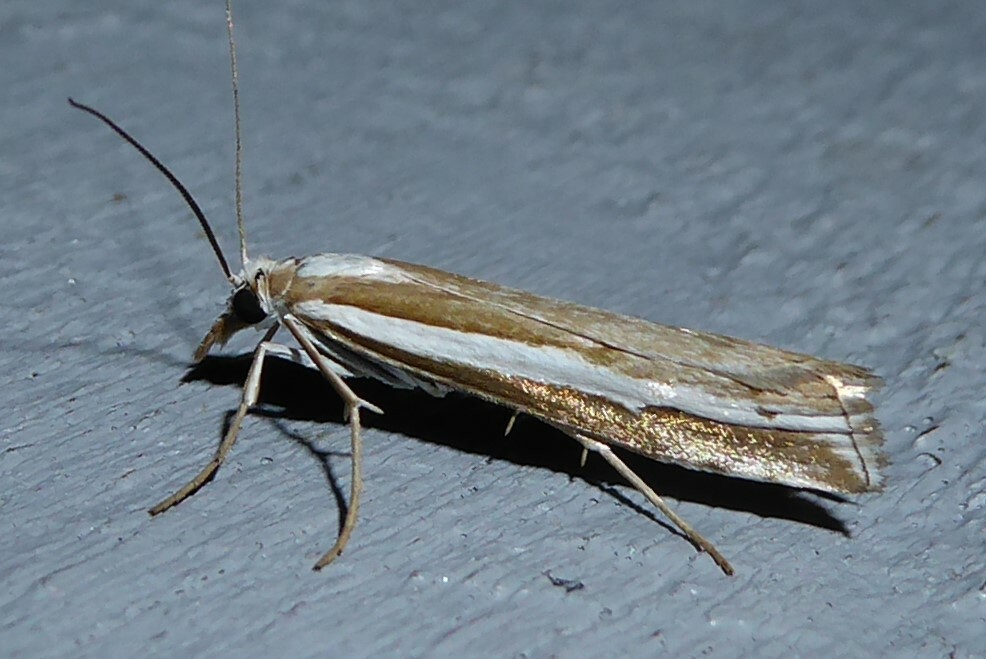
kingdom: Animalia
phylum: Arthropoda
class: Insecta
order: Lepidoptera
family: Crambidae
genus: Orocrambus
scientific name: Orocrambus vittellus
